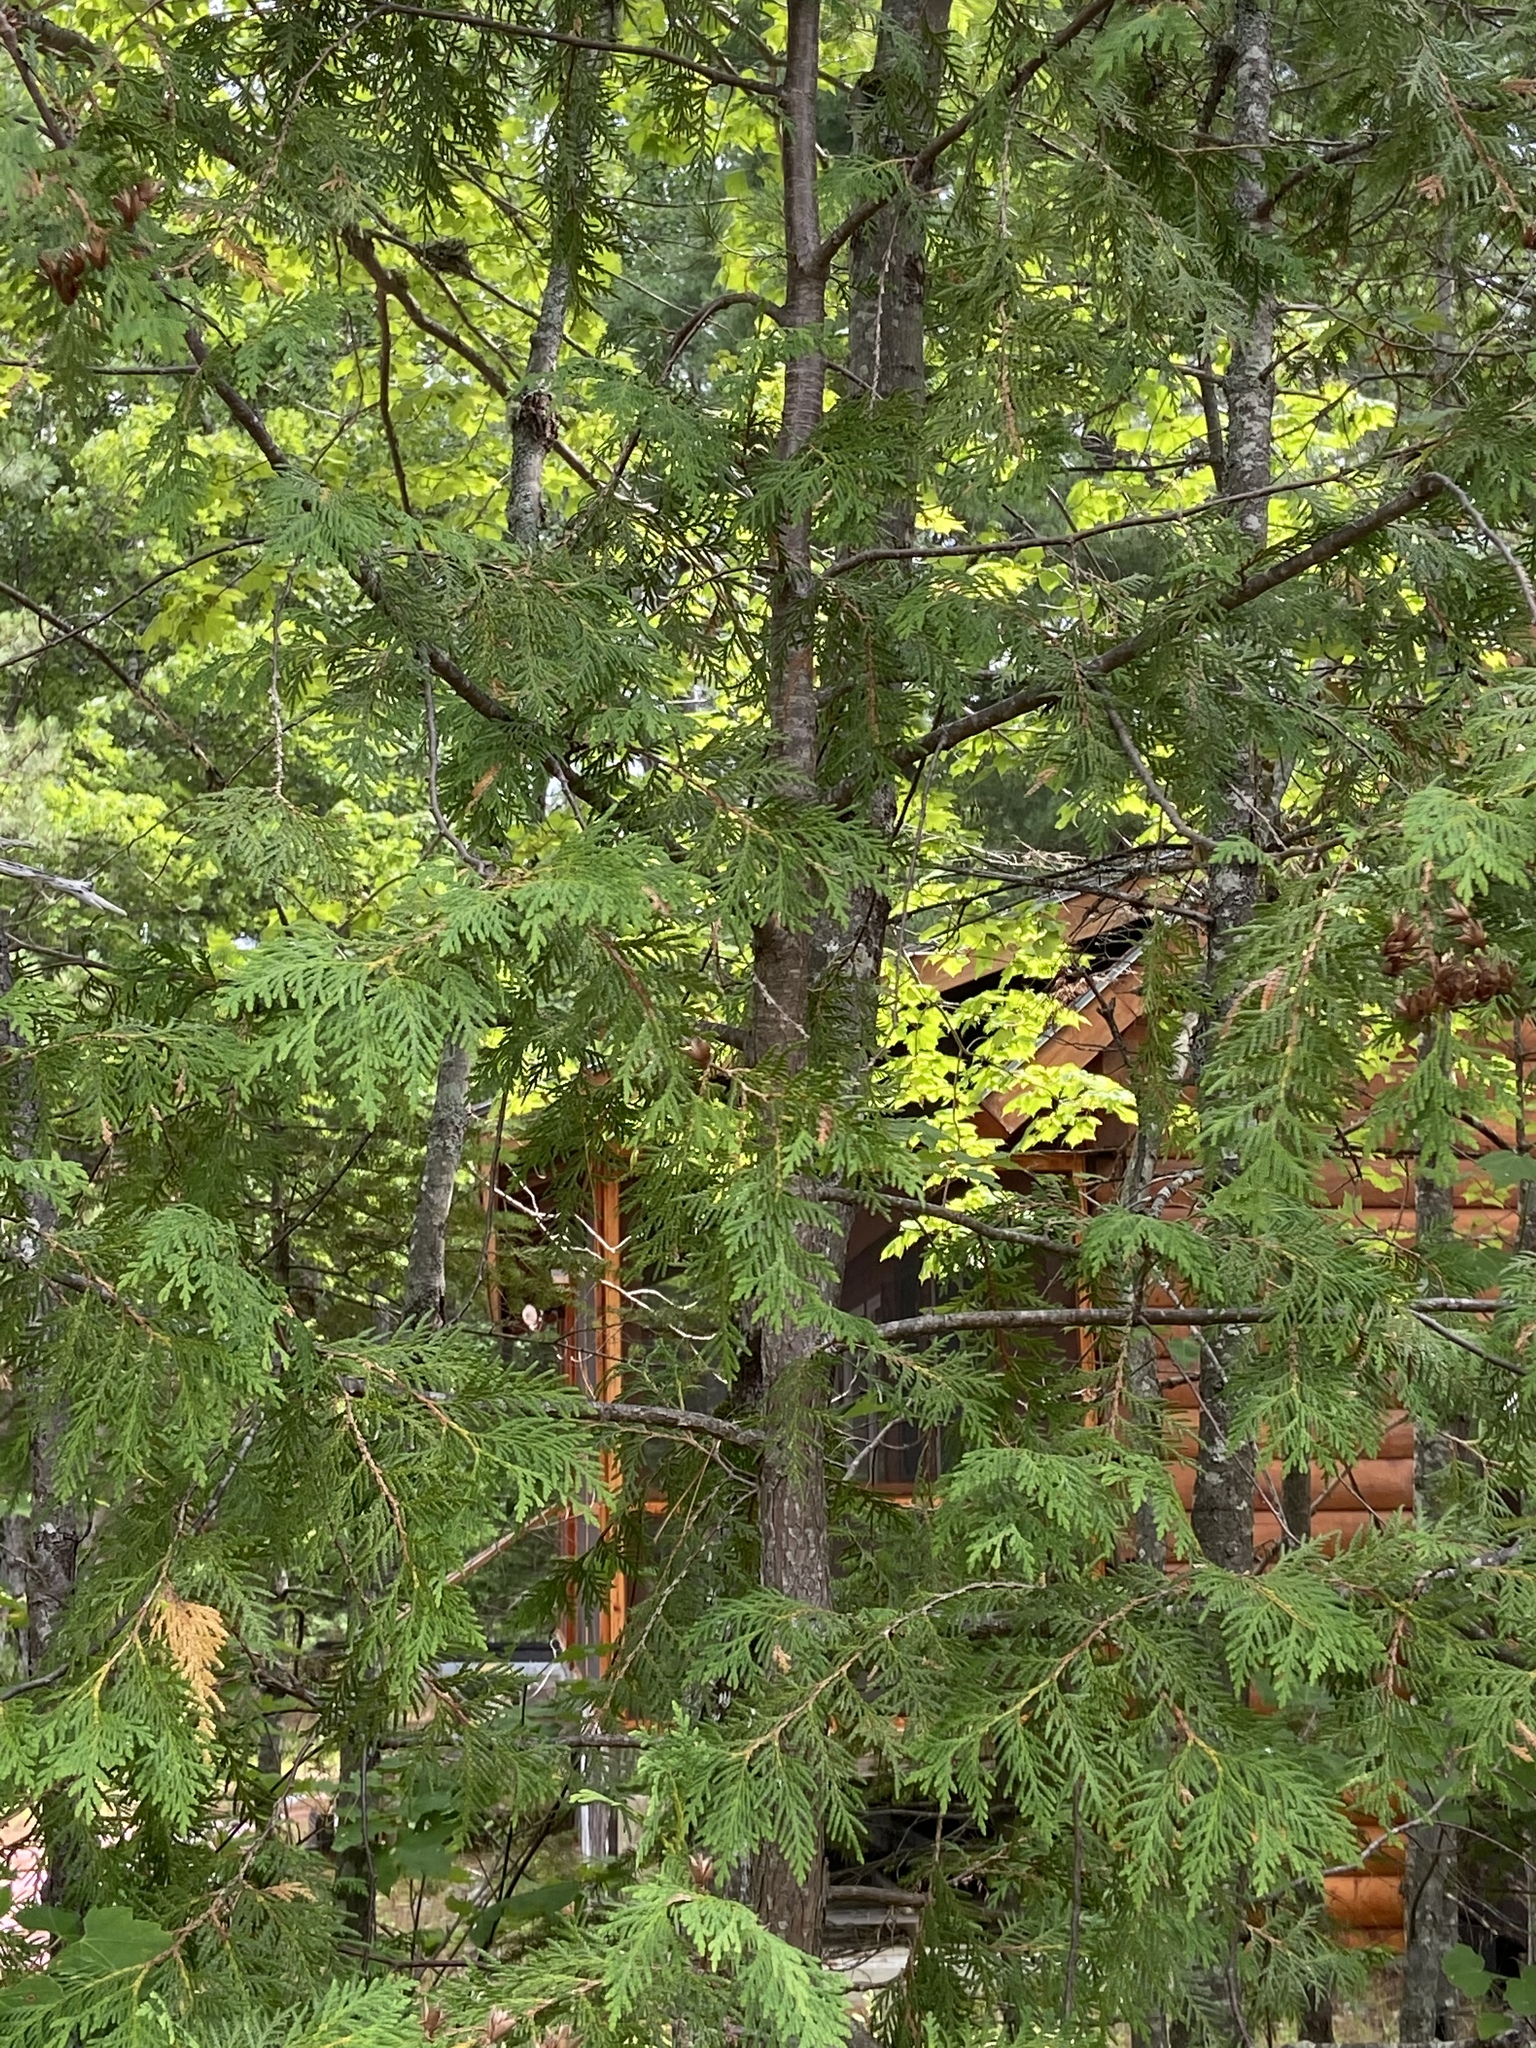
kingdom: Plantae
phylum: Tracheophyta
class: Pinopsida
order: Pinales
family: Cupressaceae
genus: Thuja
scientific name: Thuja occidentalis
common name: Northern white-cedar
